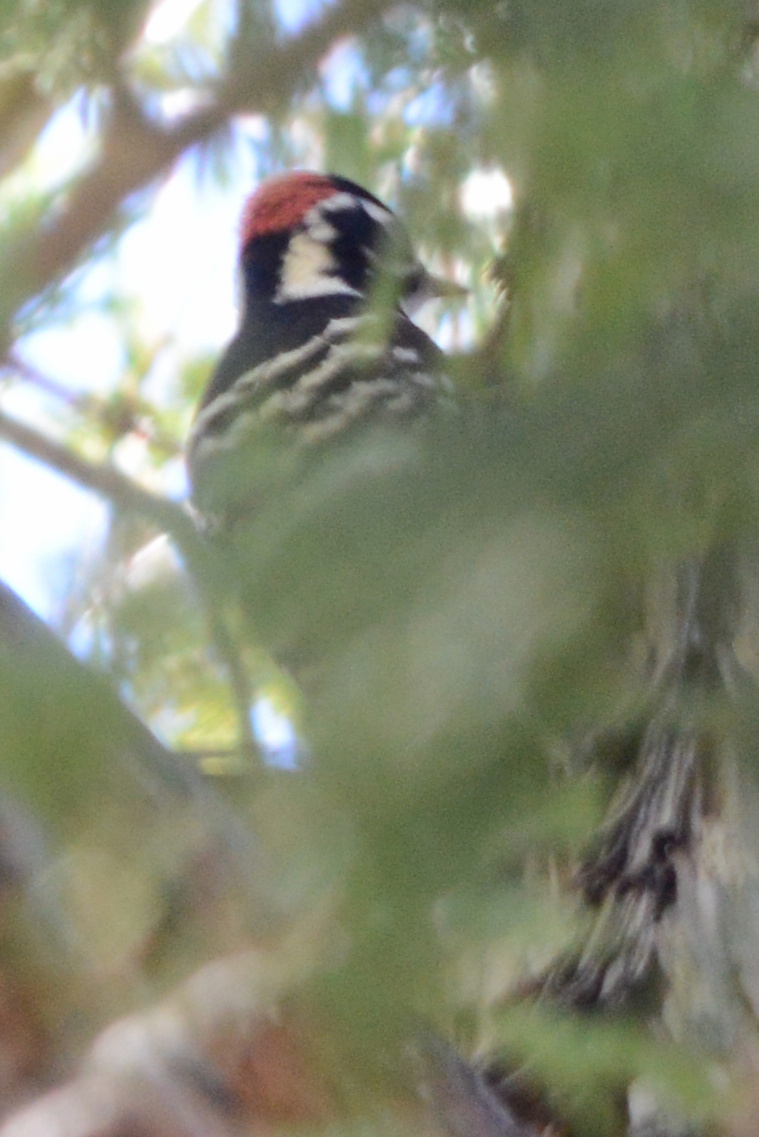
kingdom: Animalia
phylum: Chordata
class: Aves
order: Piciformes
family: Picidae
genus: Dryobates
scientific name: Dryobates nuttallii
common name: Nuttall's woodpecker
